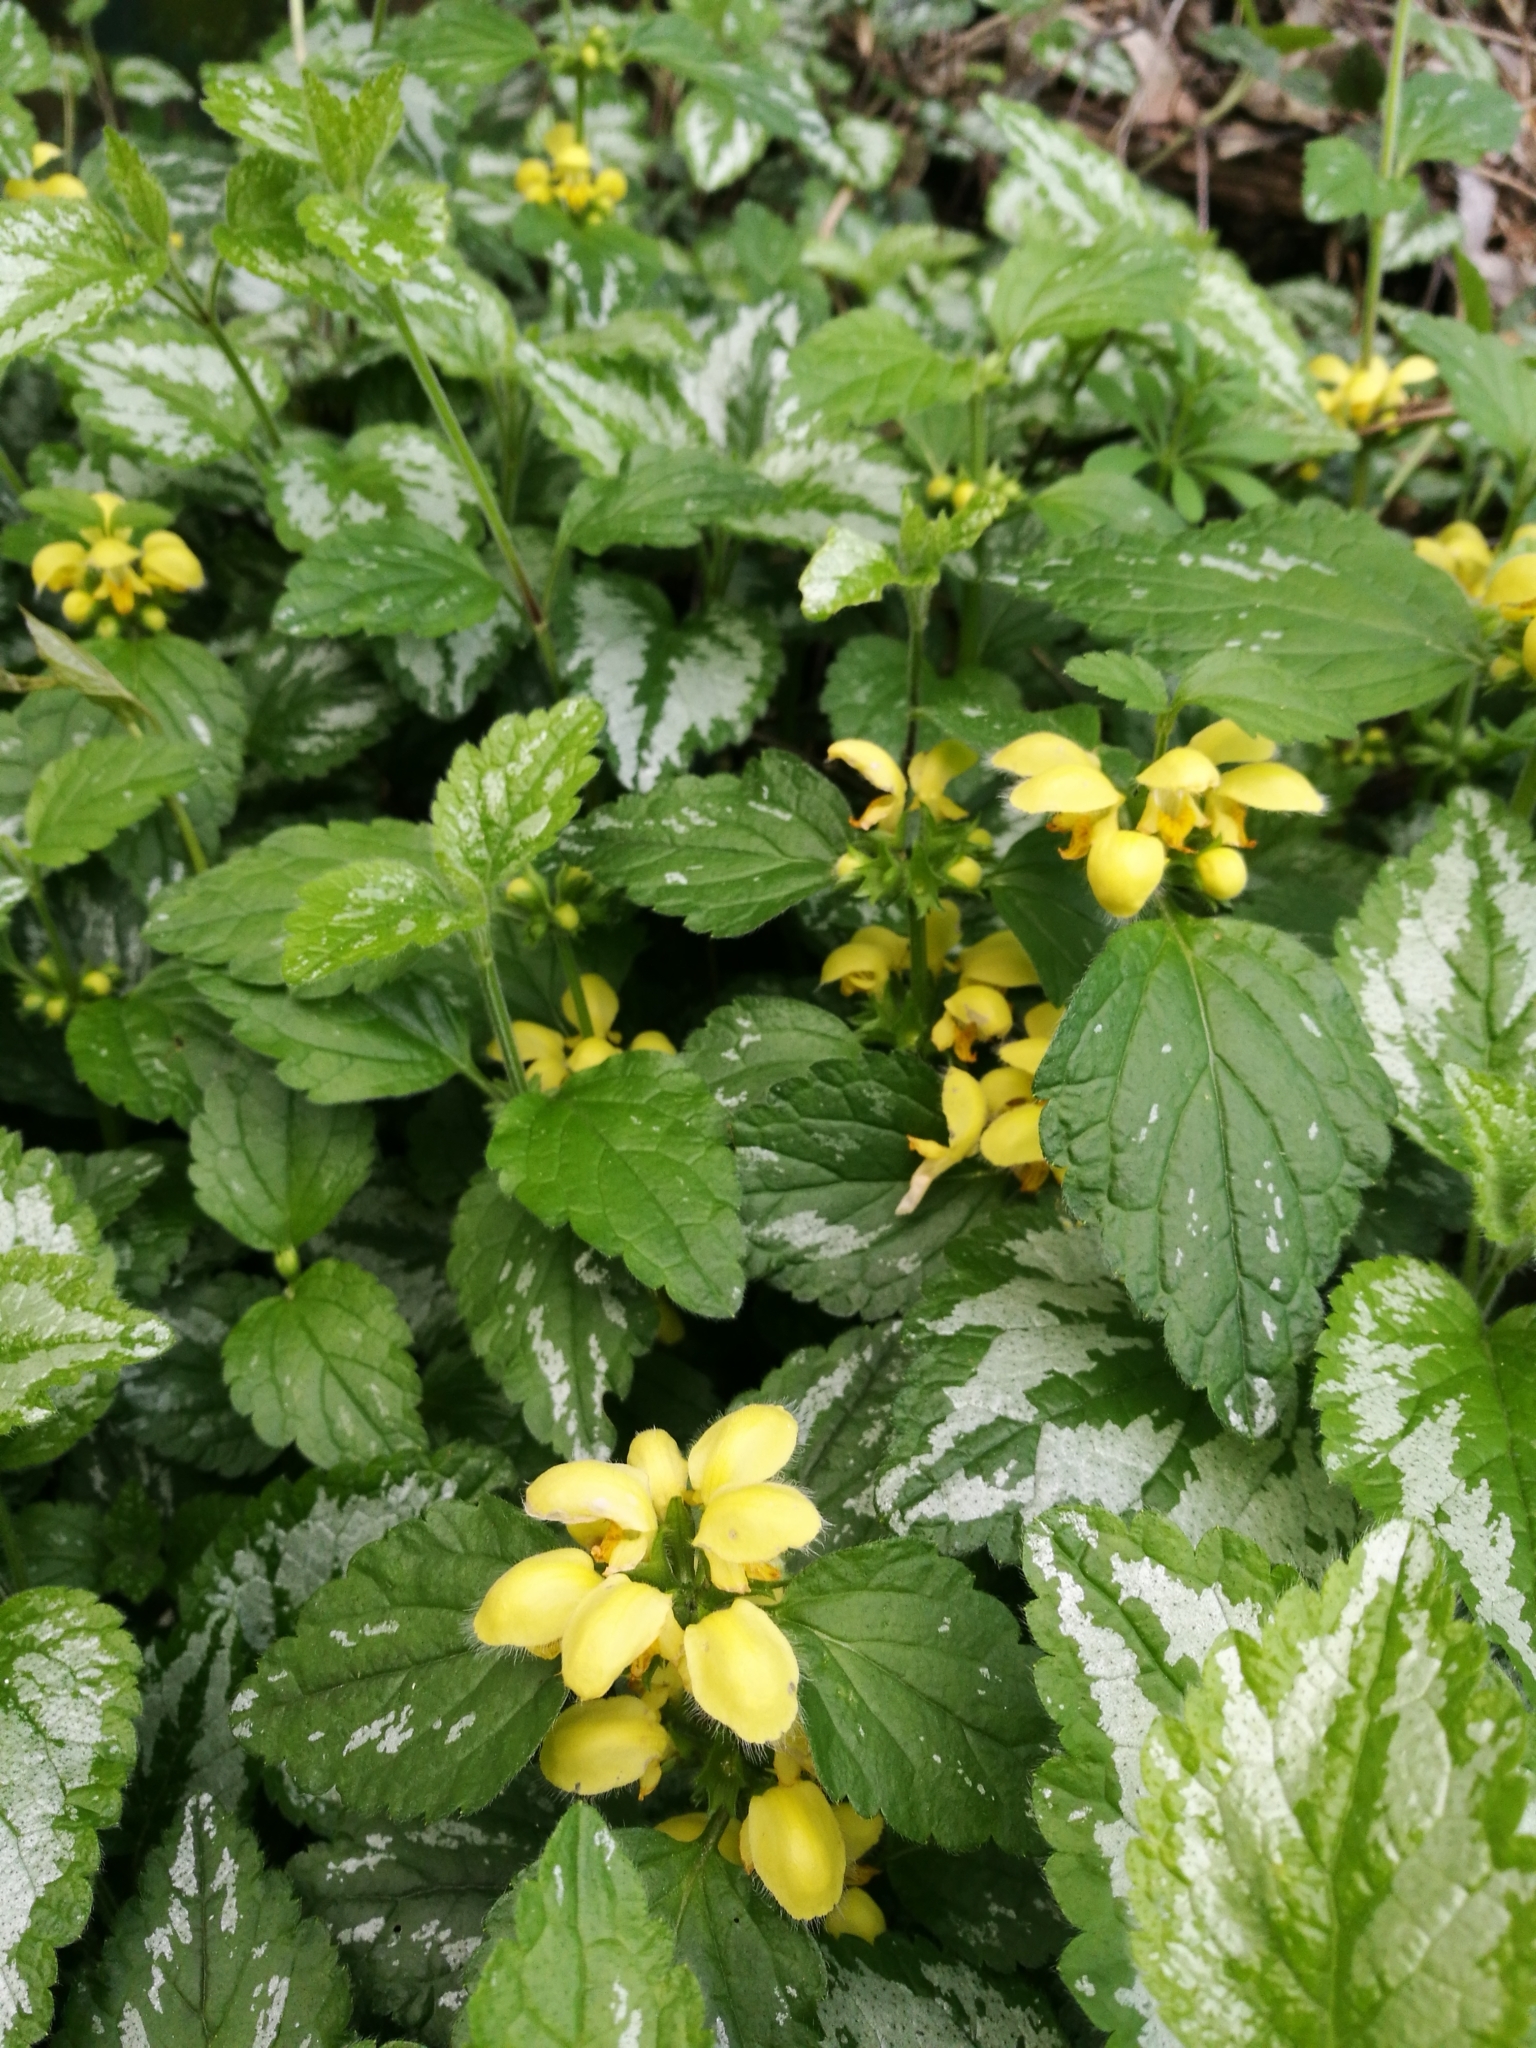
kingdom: Plantae
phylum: Tracheophyta
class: Magnoliopsida
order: Lamiales
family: Lamiaceae
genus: Lamium
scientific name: Lamium galeobdolon
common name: Yellow archangel
